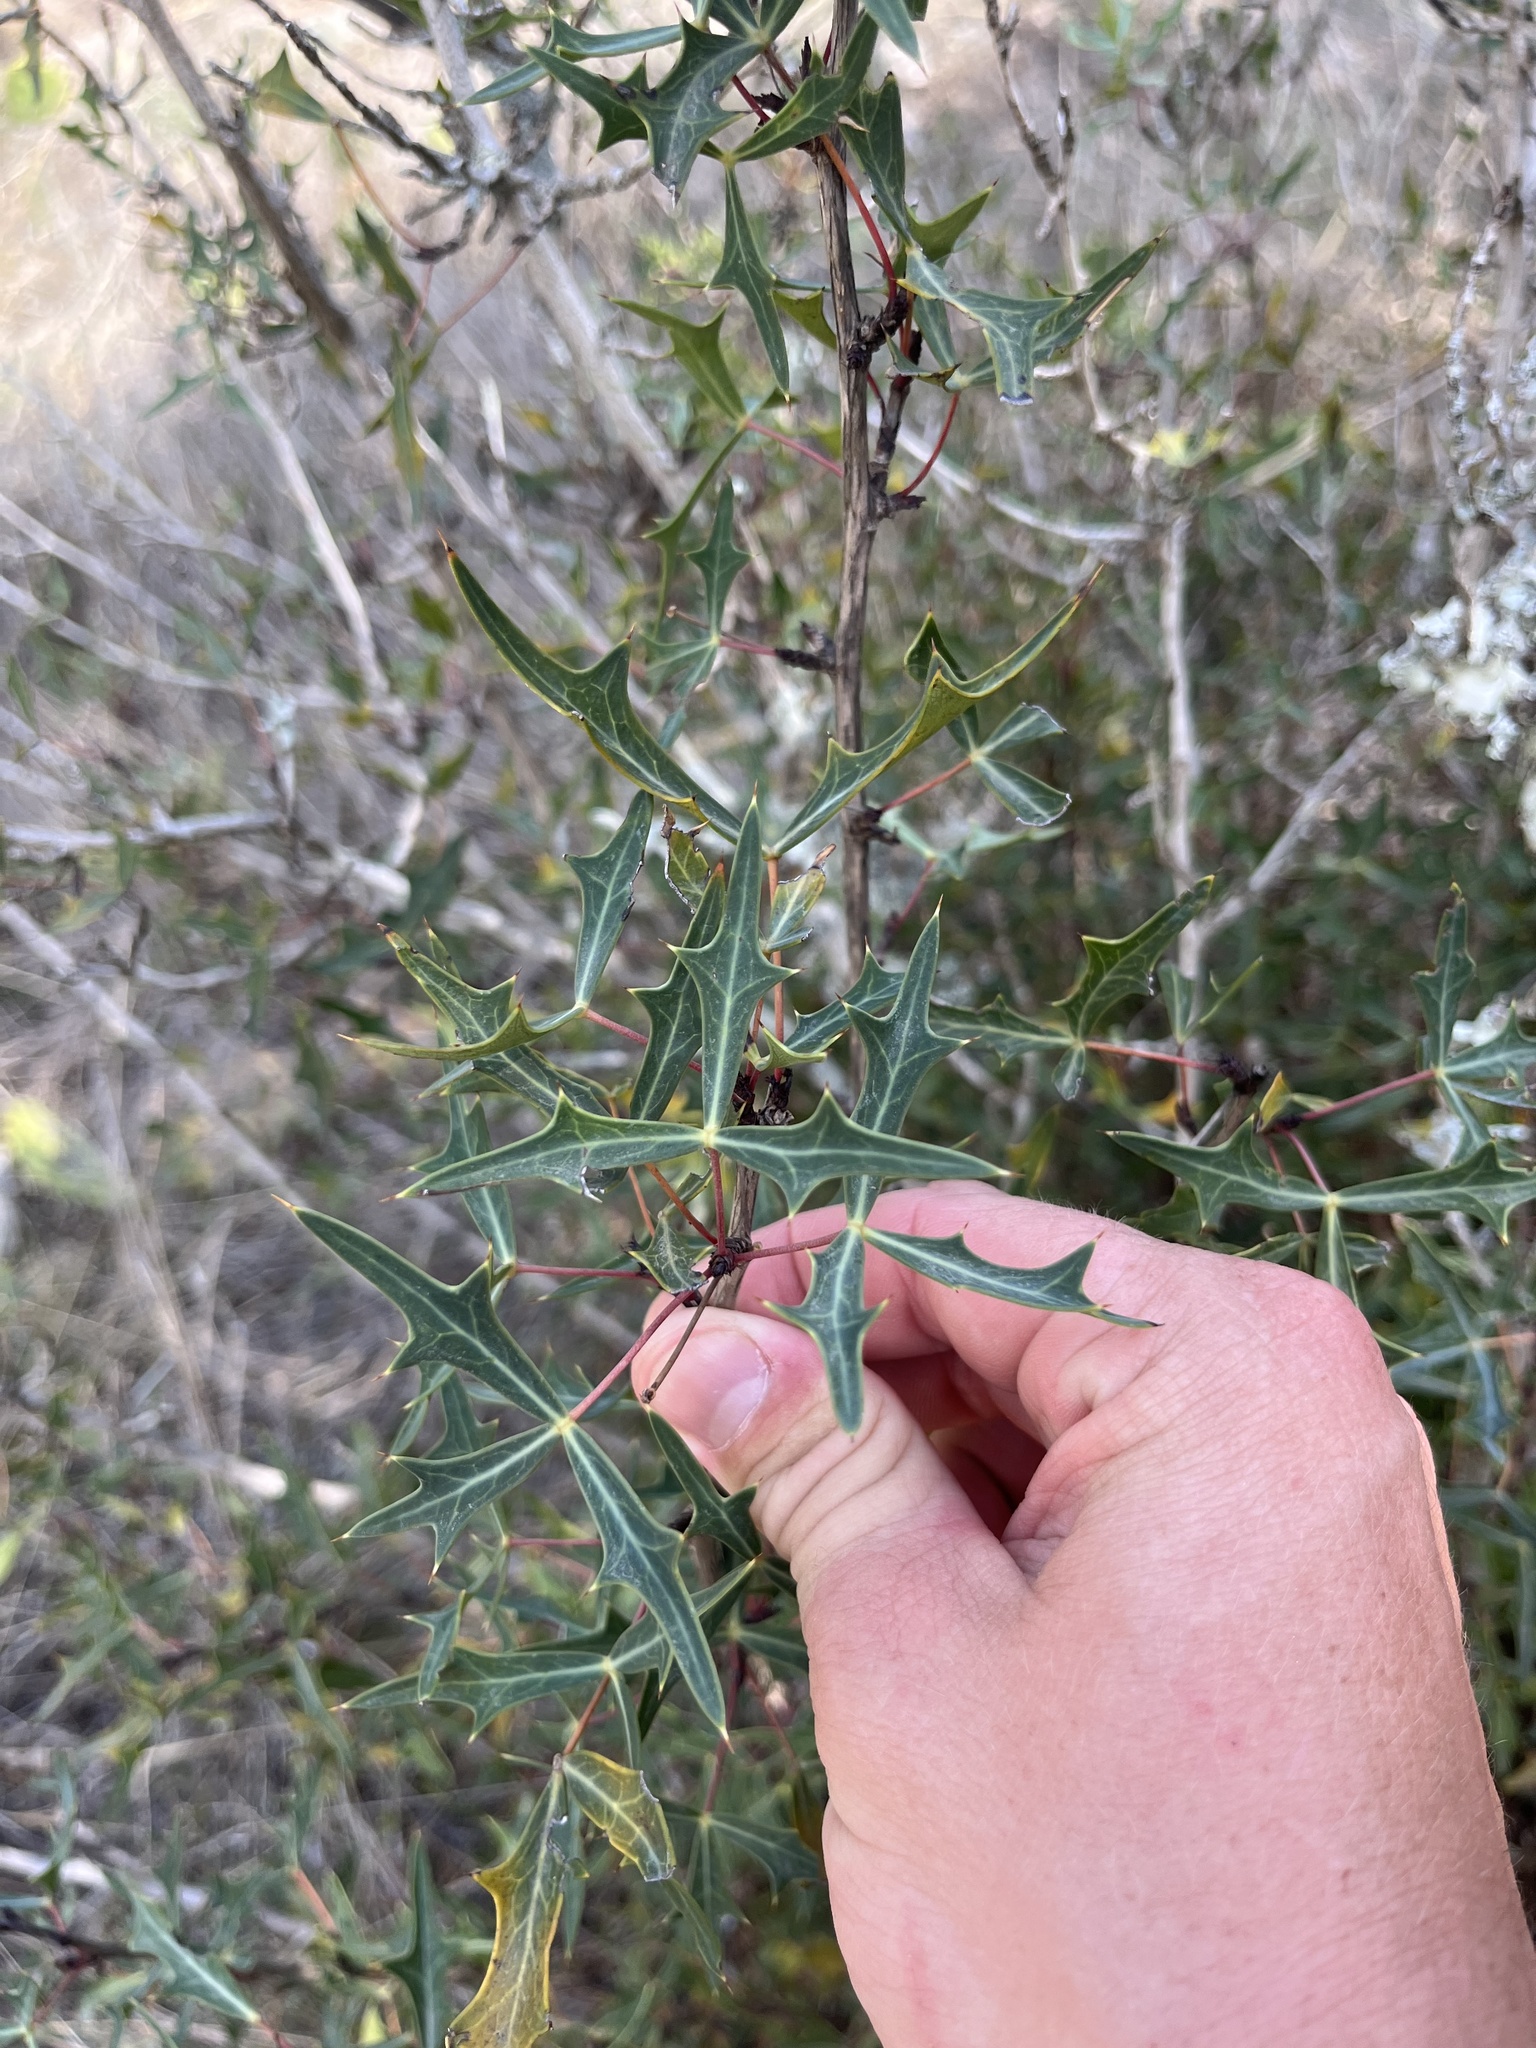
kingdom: Plantae
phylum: Tracheophyta
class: Magnoliopsida
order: Ranunculales
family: Berberidaceae
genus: Alloberberis
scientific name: Alloberberis trifoliolata
